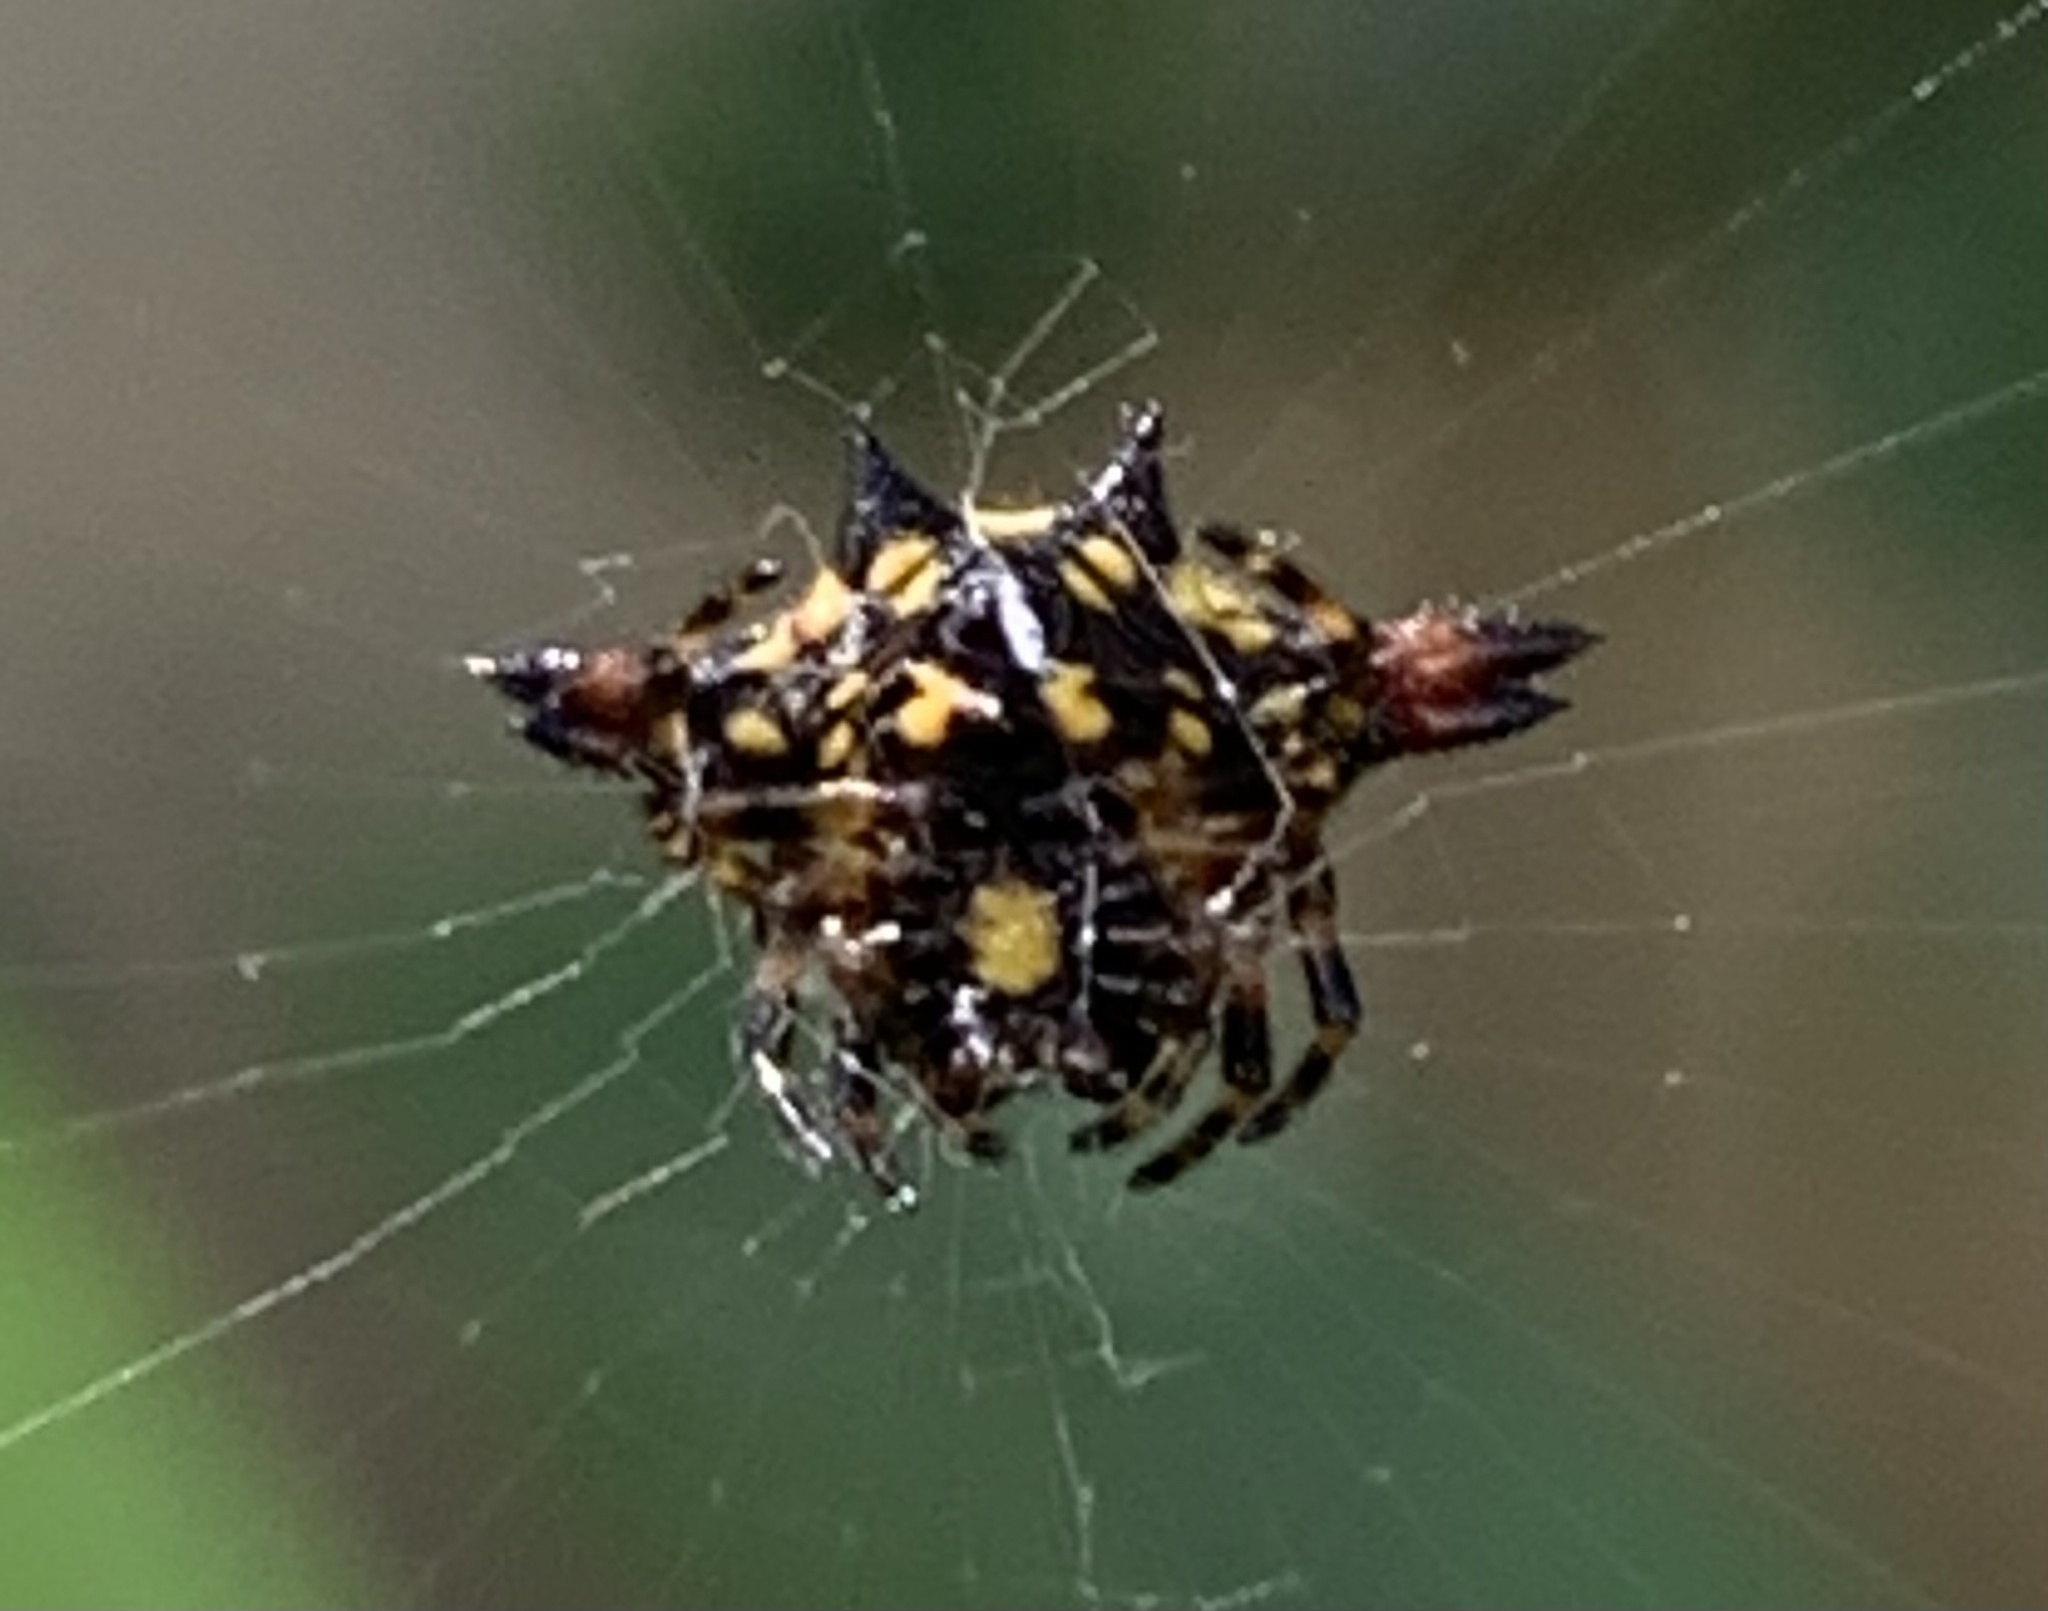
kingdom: Animalia
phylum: Arthropoda
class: Arachnida
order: Araneae
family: Araneidae
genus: Gasteracantha
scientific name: Gasteracantha geminata
